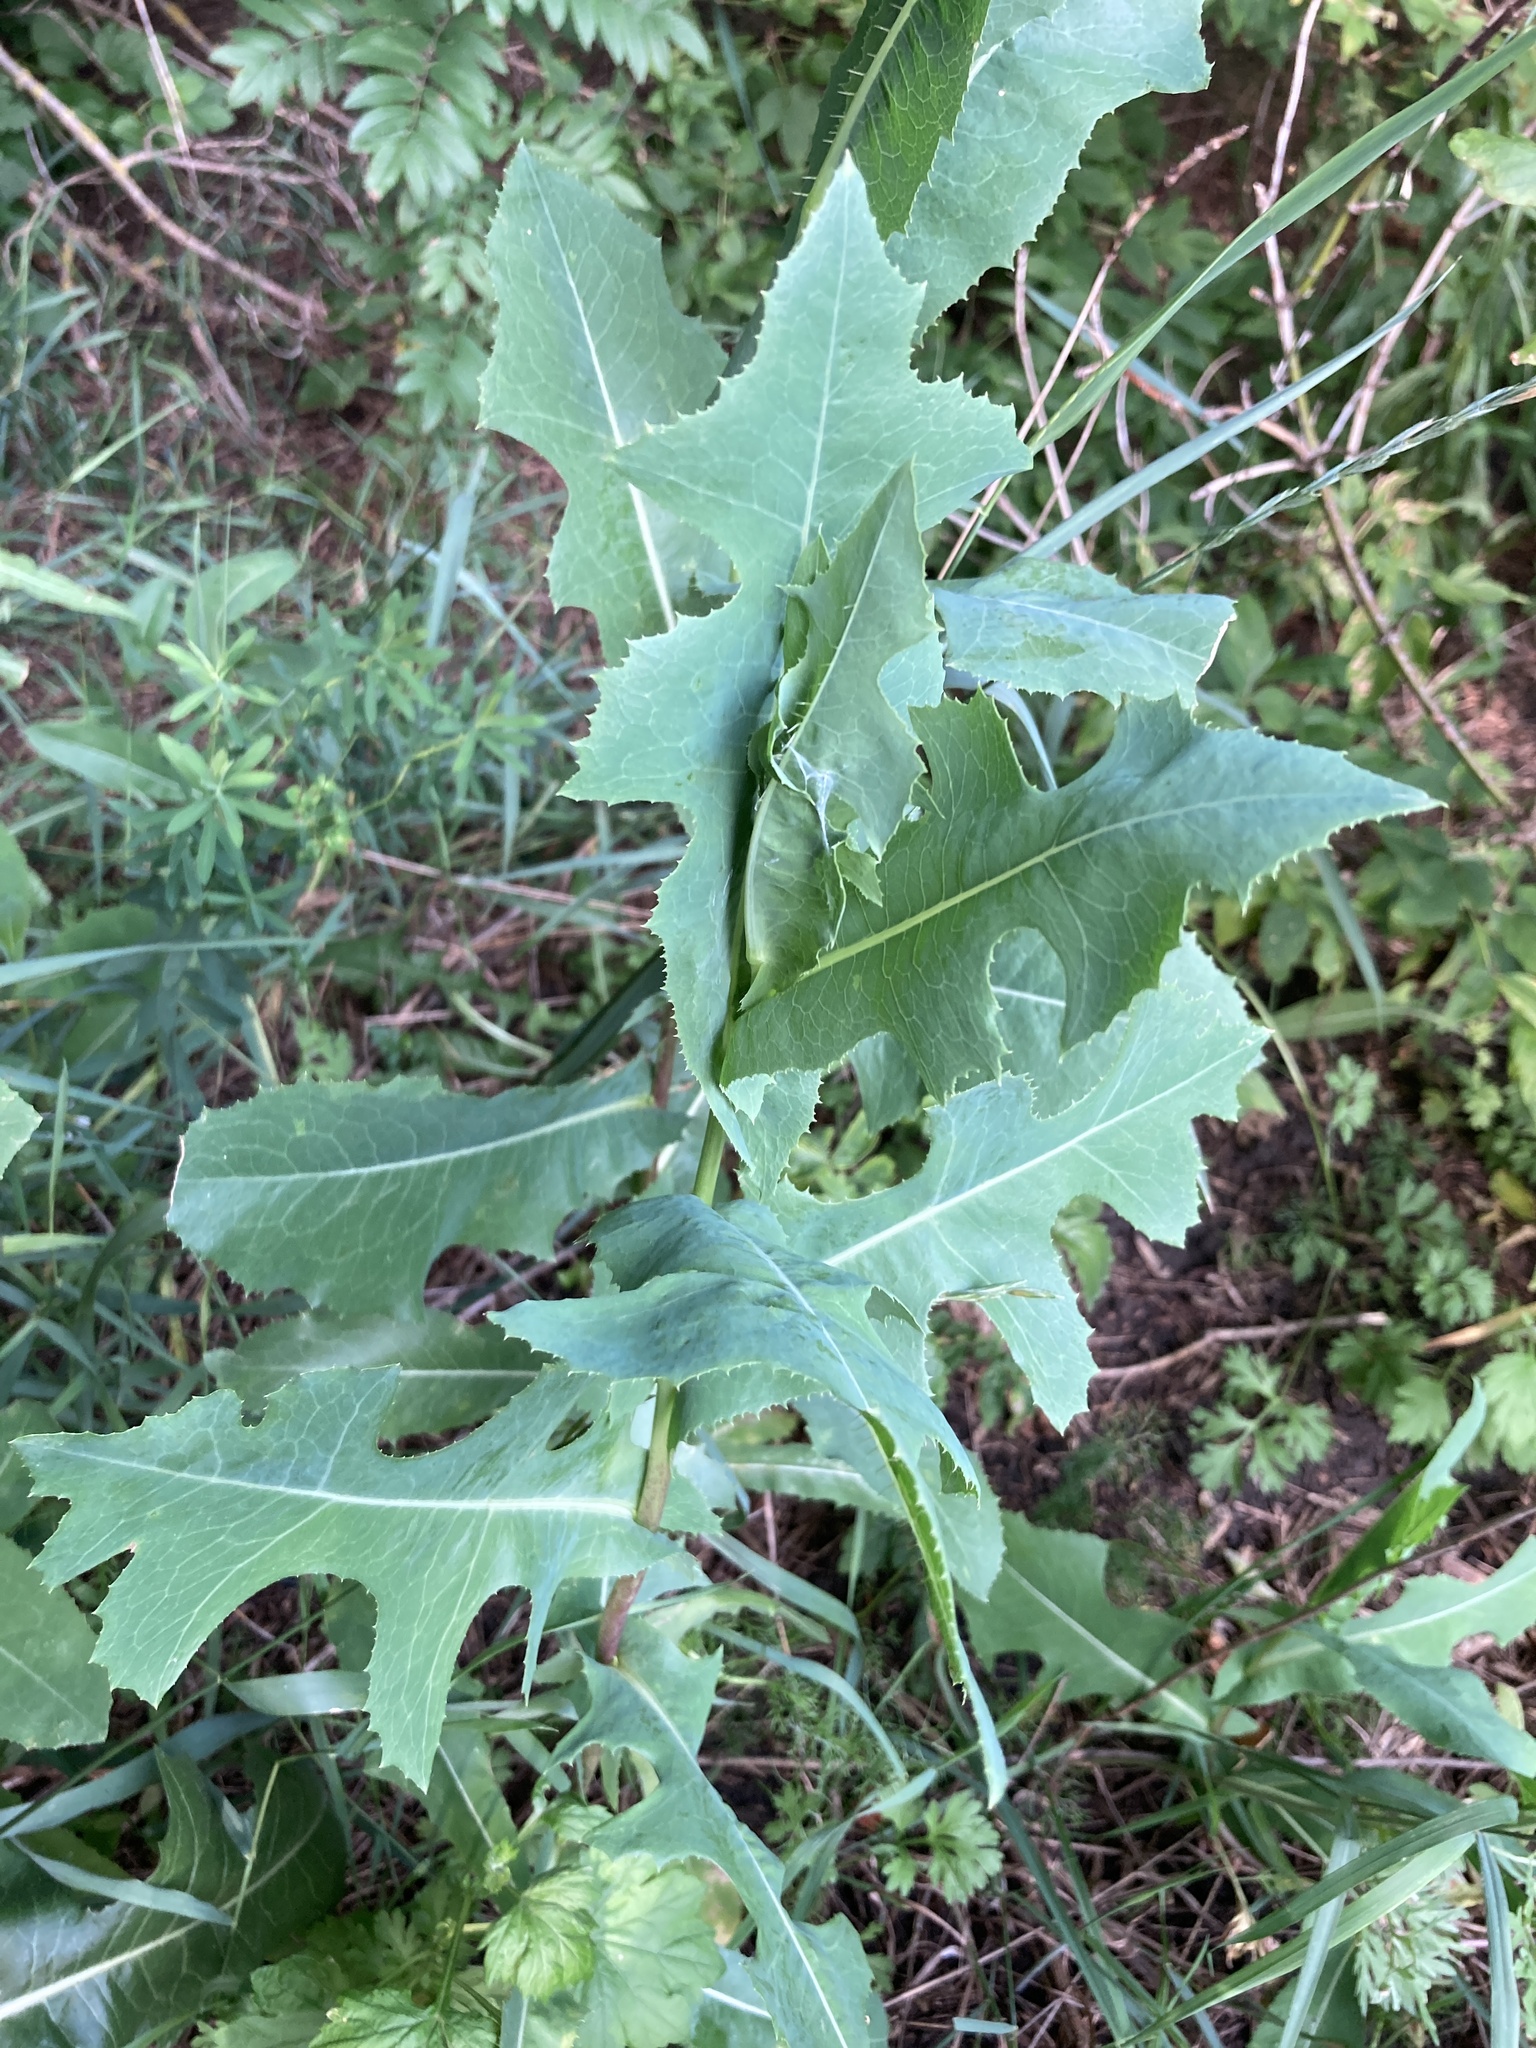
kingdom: Plantae
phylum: Tracheophyta
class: Magnoliopsida
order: Asterales
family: Asteraceae
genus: Lactuca
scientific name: Lactuca serriola
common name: Prickly lettuce
